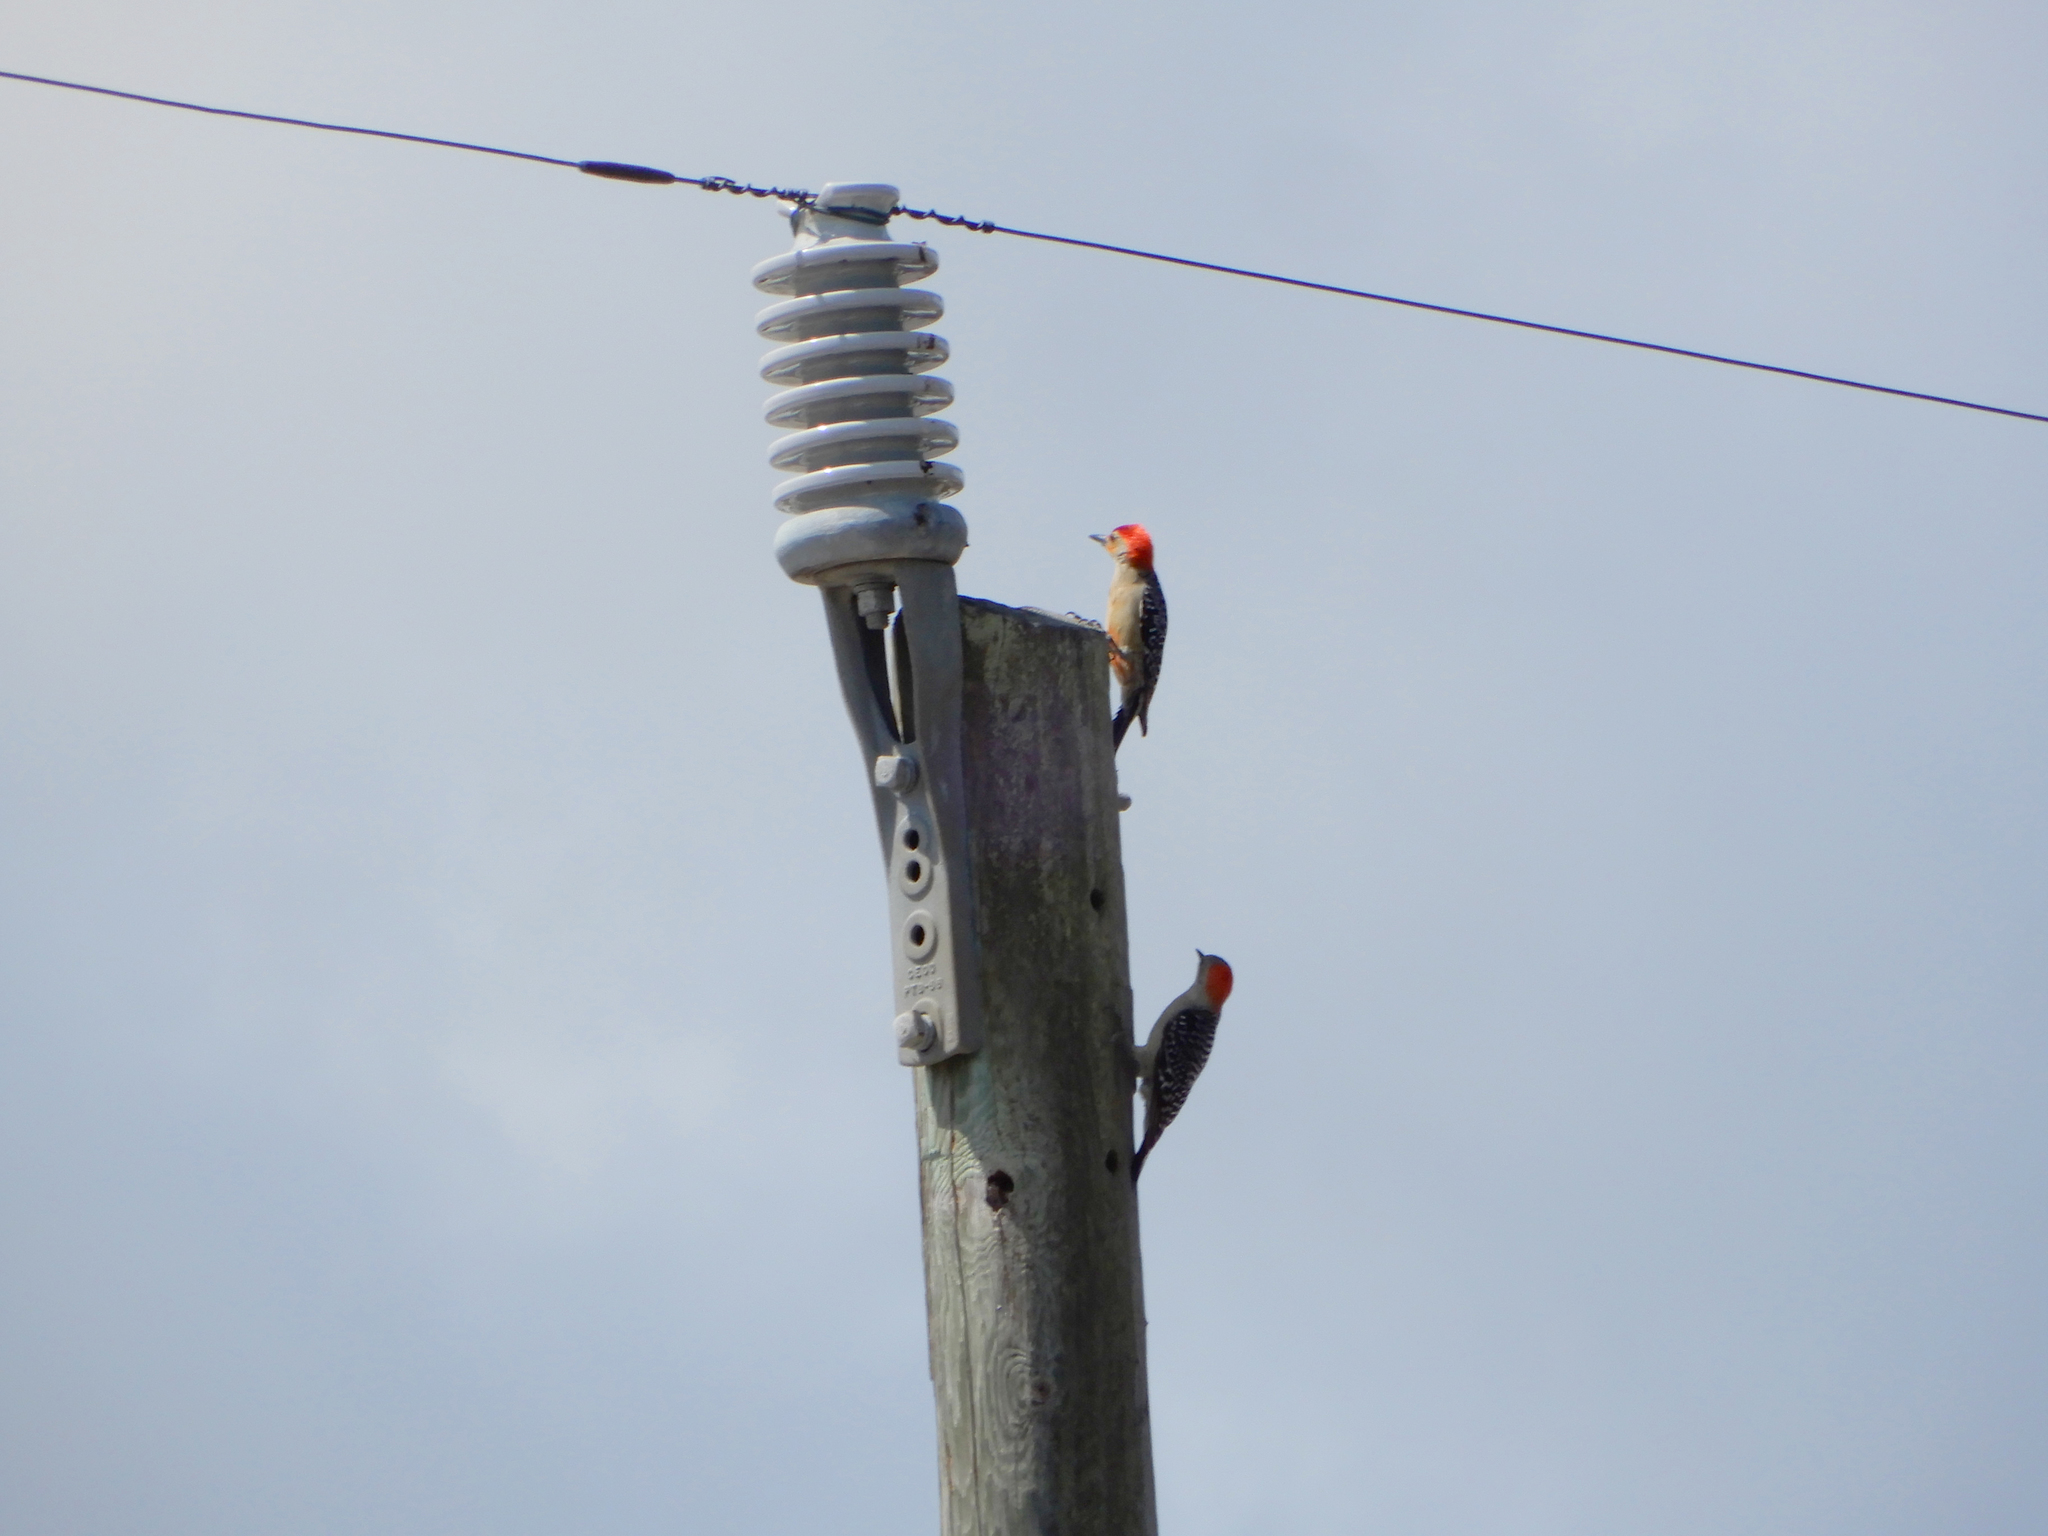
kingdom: Animalia
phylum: Chordata
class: Aves
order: Piciformes
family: Picidae
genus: Melanerpes
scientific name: Melanerpes carolinus
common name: Red-bellied woodpecker
